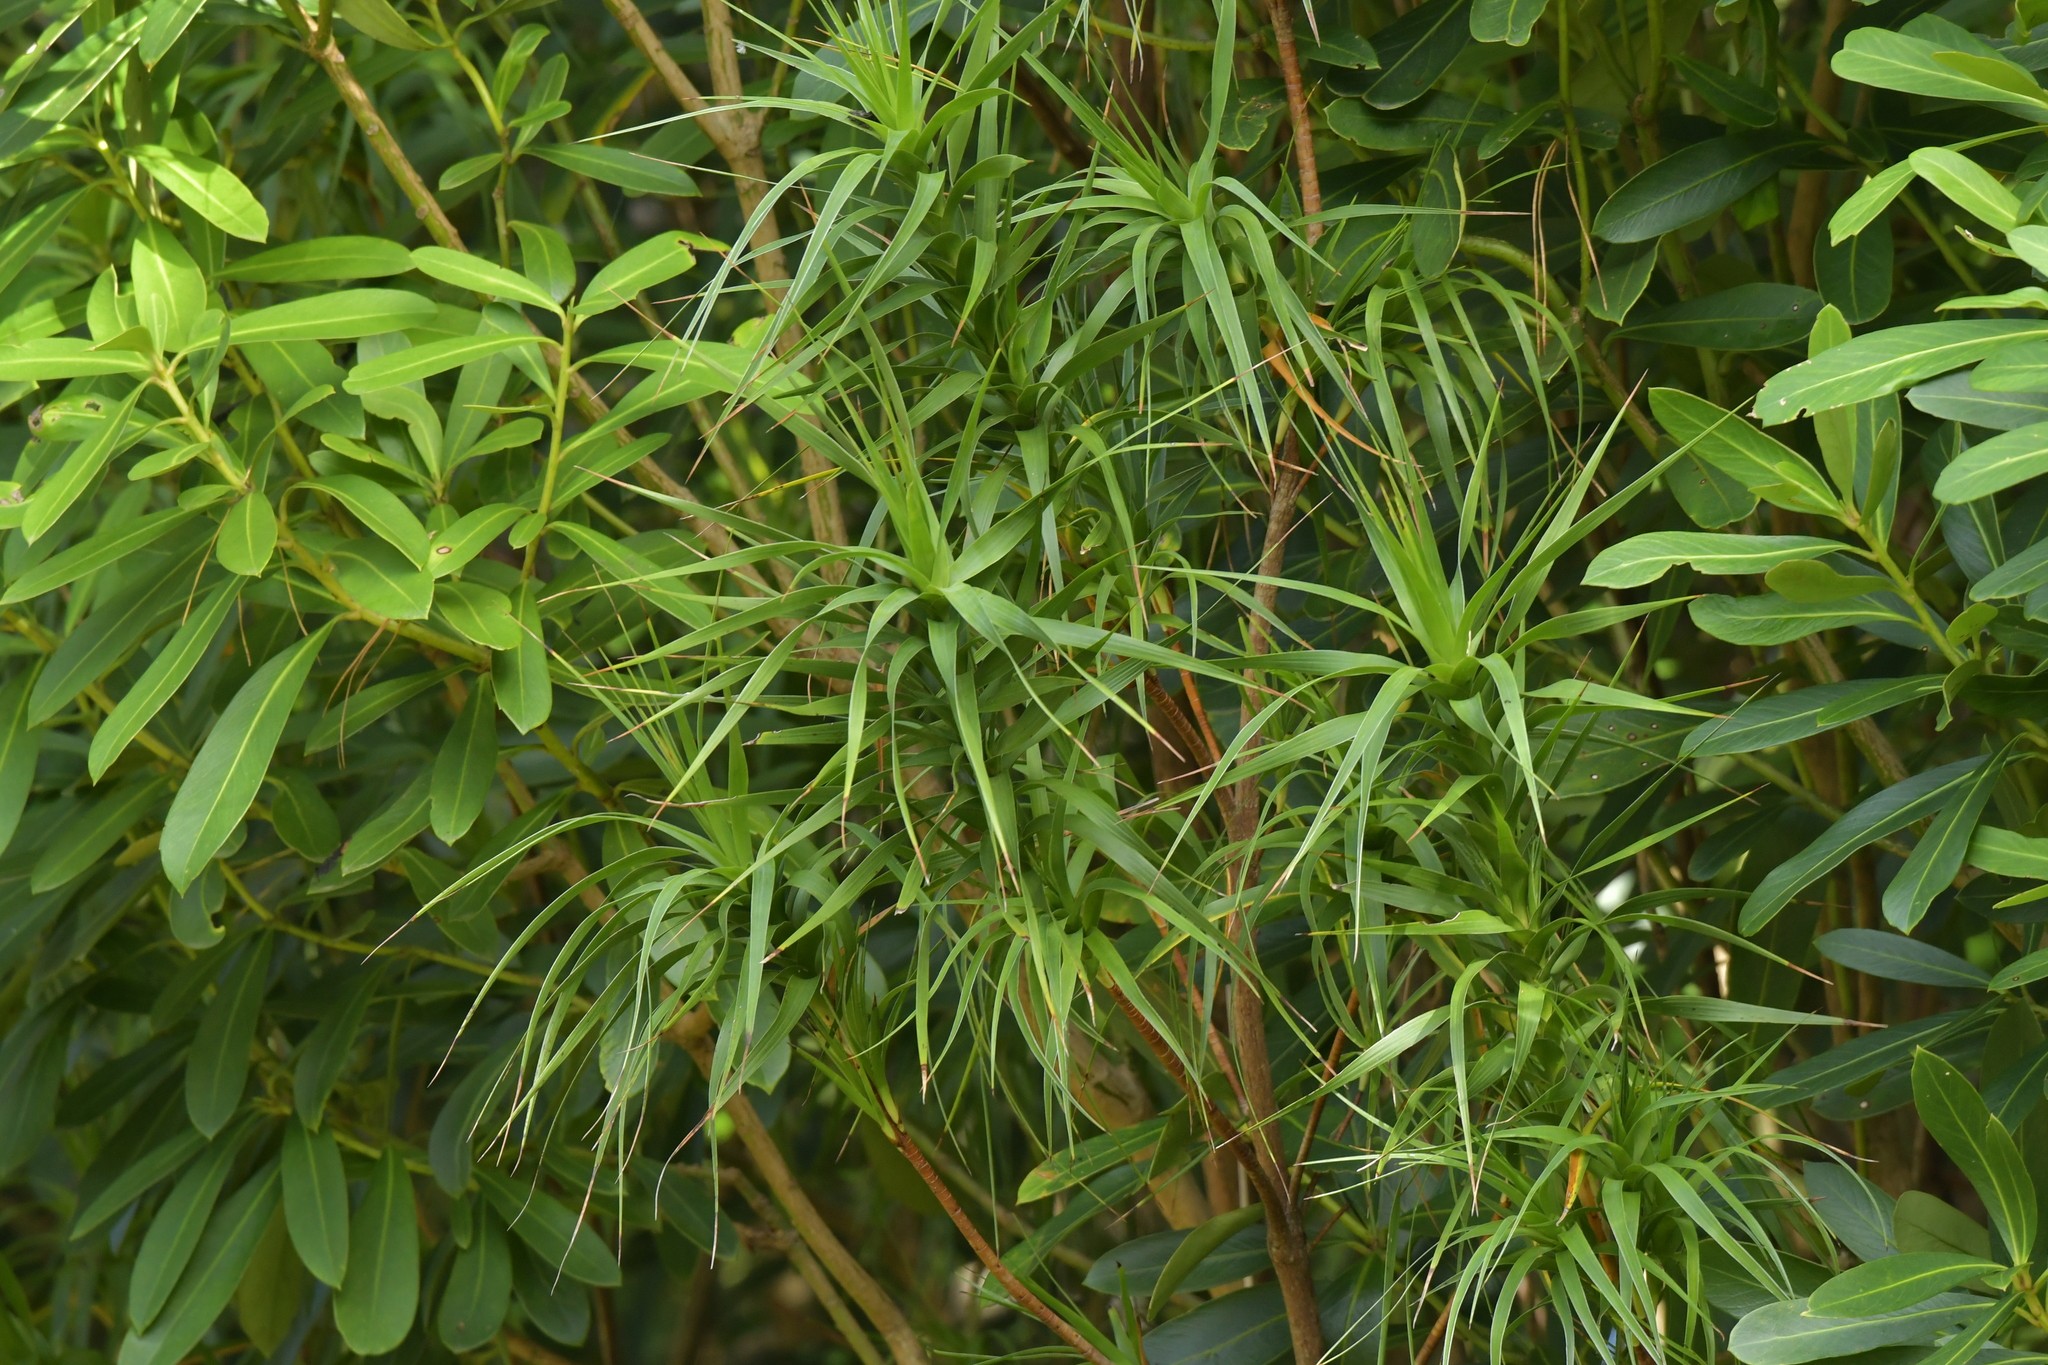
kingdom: Plantae
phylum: Tracheophyta
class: Magnoliopsida
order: Ericales
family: Ericaceae
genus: Dracophyllum
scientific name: Dracophyllum arboreum
